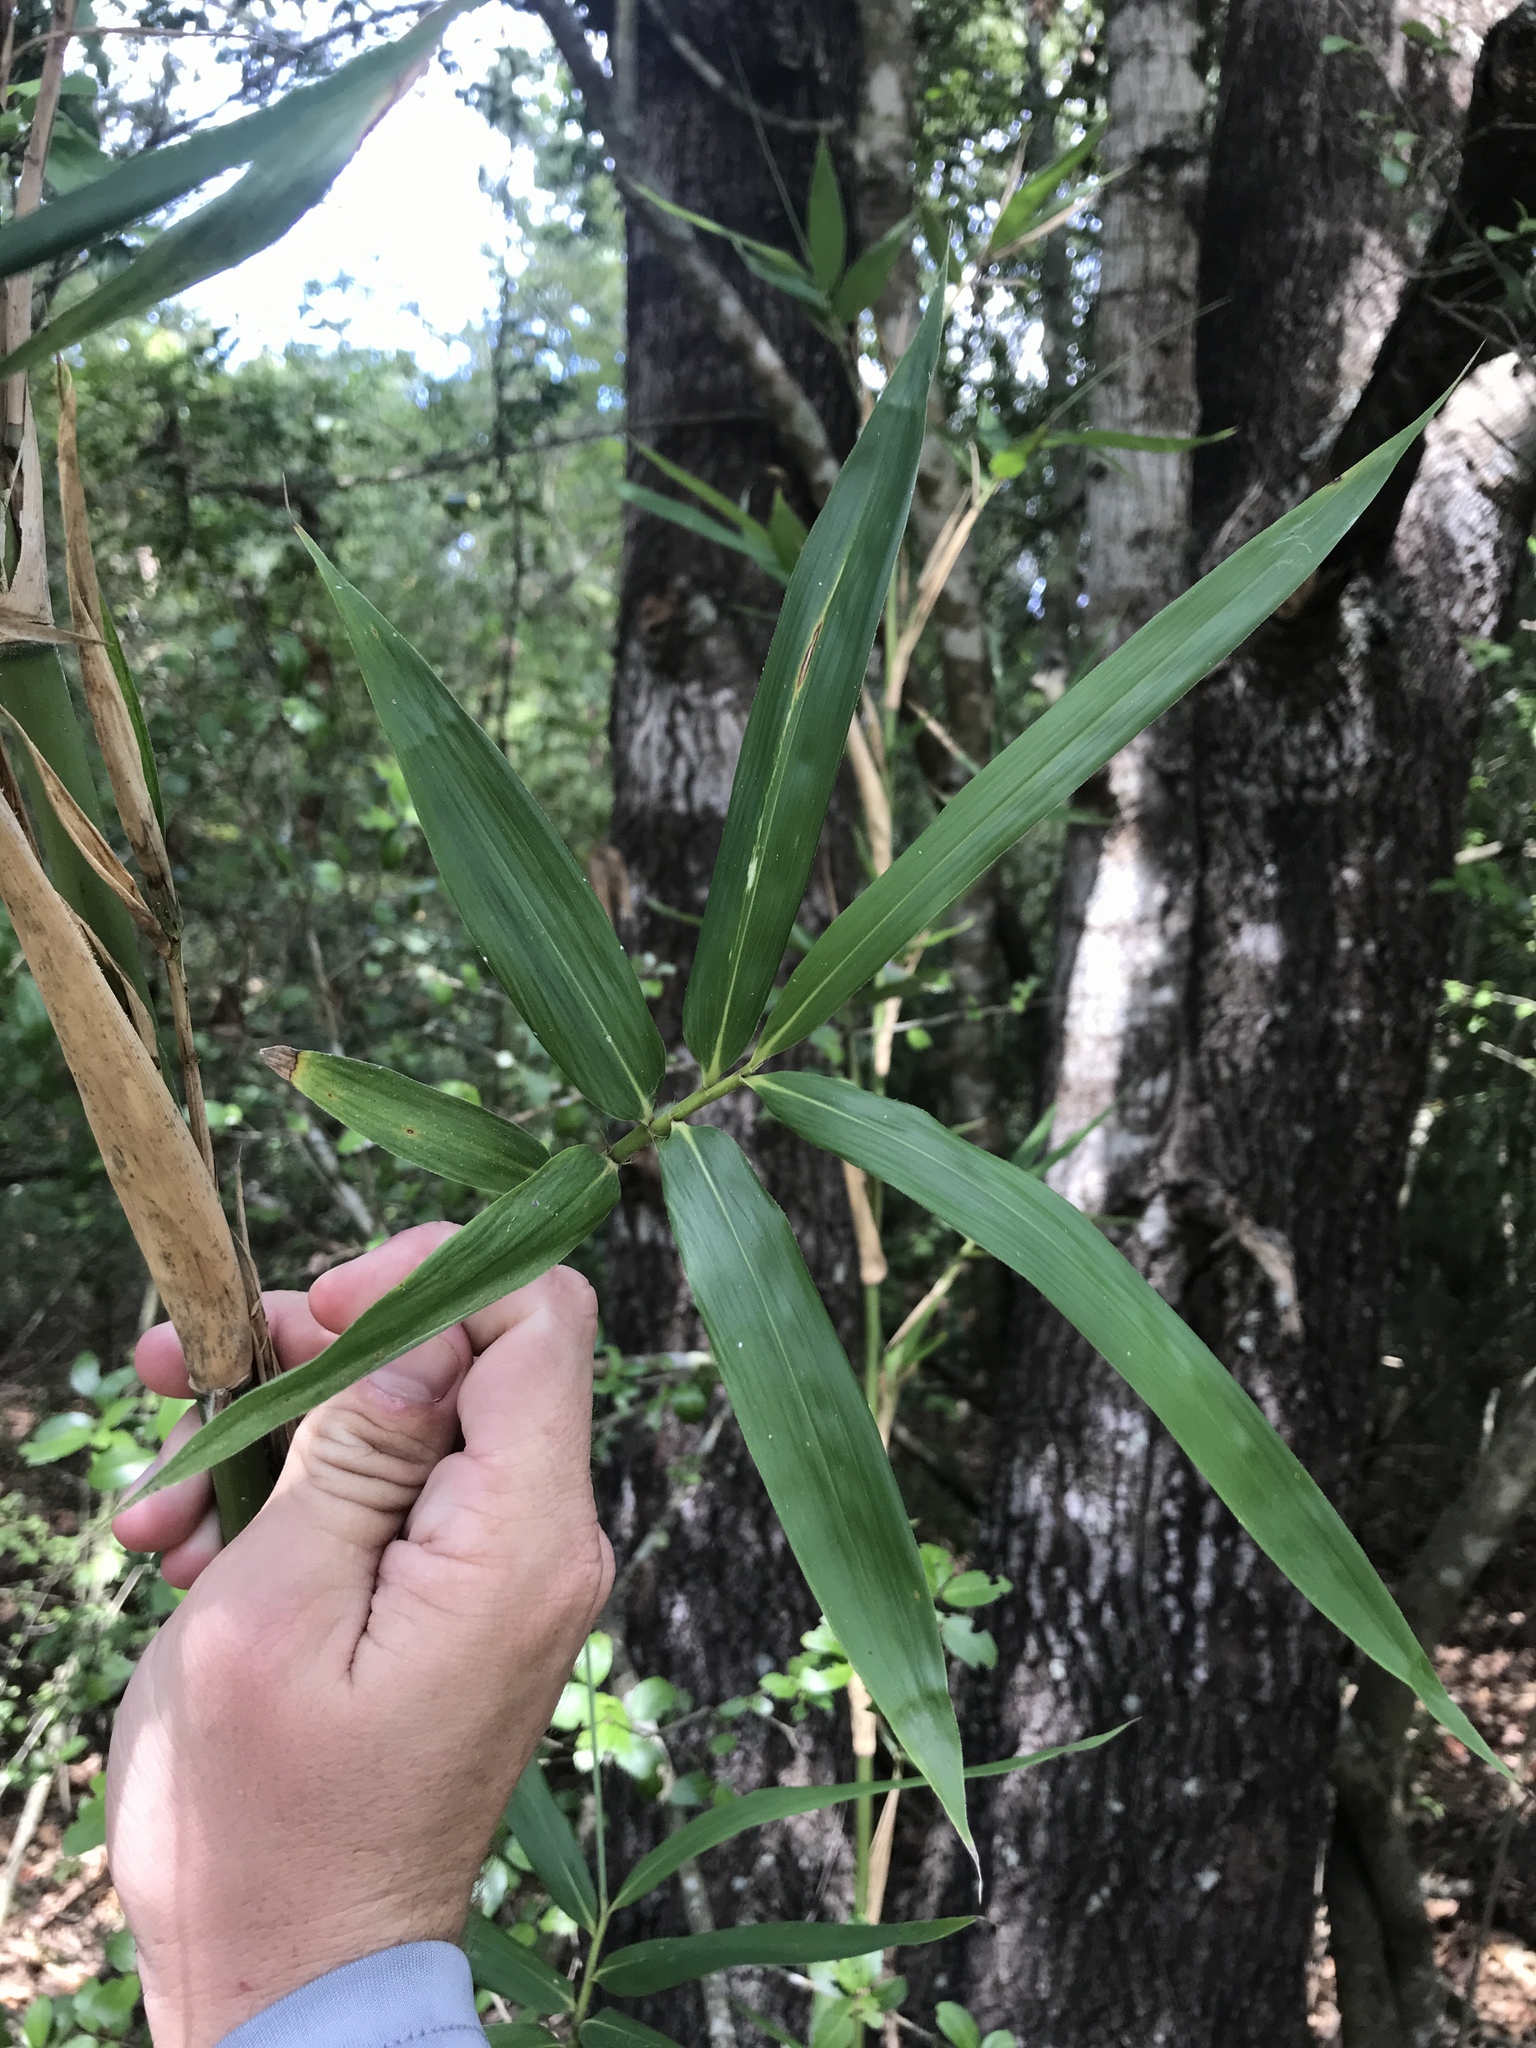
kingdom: Plantae
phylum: Tracheophyta
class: Liliopsida
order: Poales
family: Poaceae
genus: Arundinaria
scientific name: Arundinaria gigantea
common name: Giant cane
